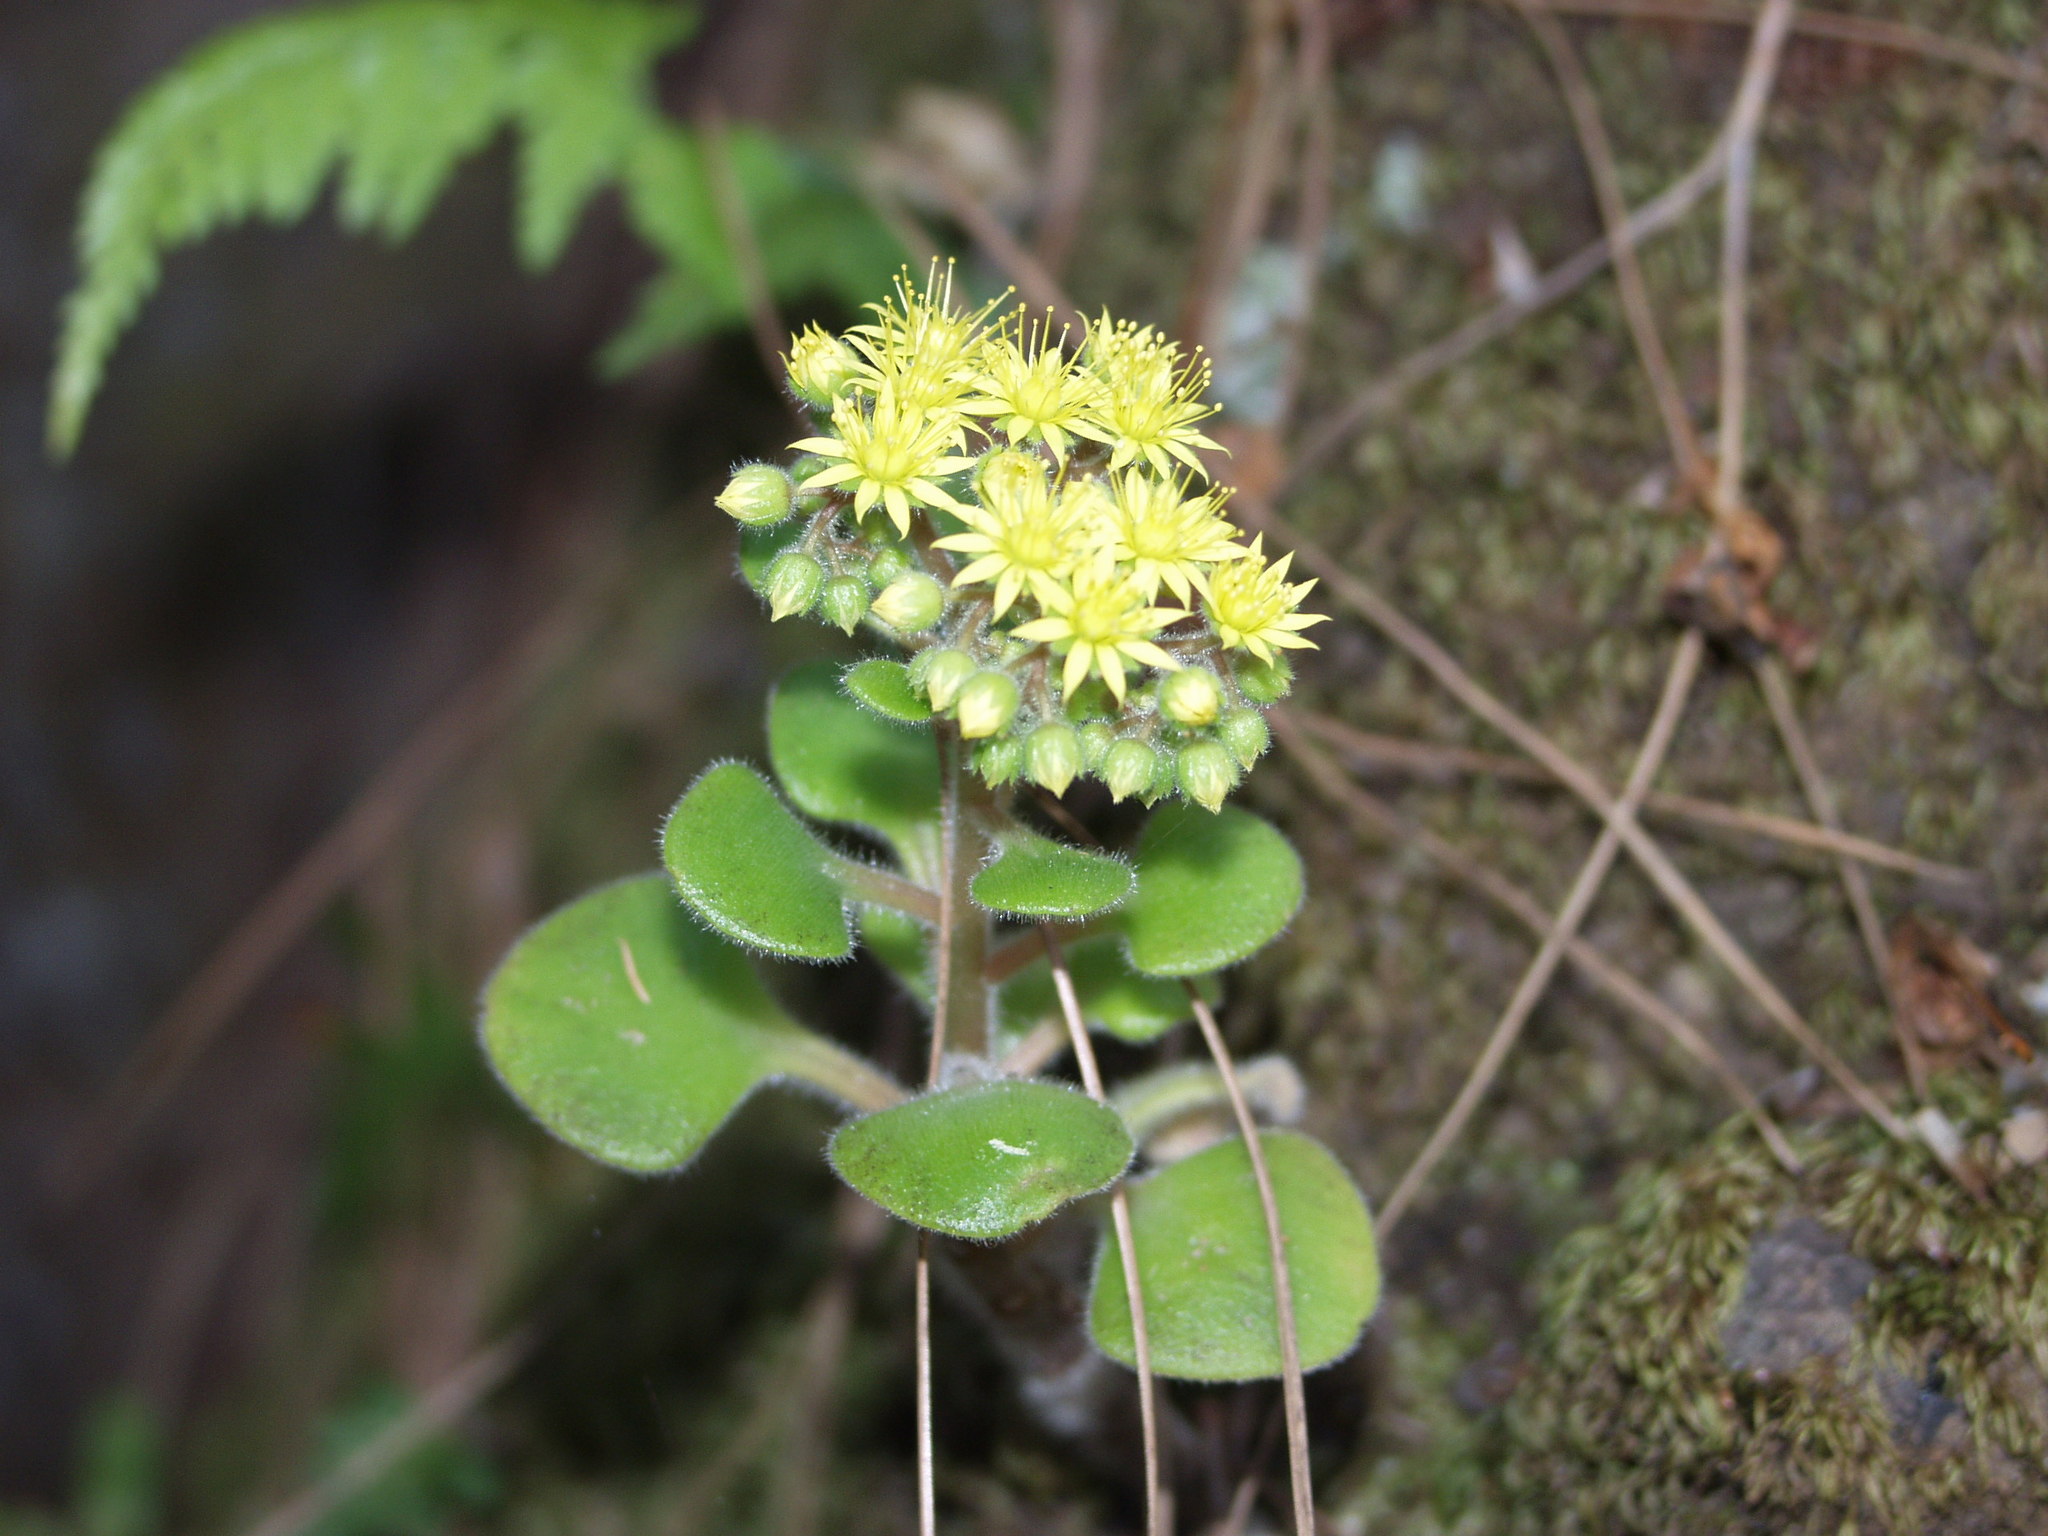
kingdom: Plantae
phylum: Tracheophyta
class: Magnoliopsida
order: Saxifragales
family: Crassulaceae
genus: Aichryson
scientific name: Aichryson laxum
